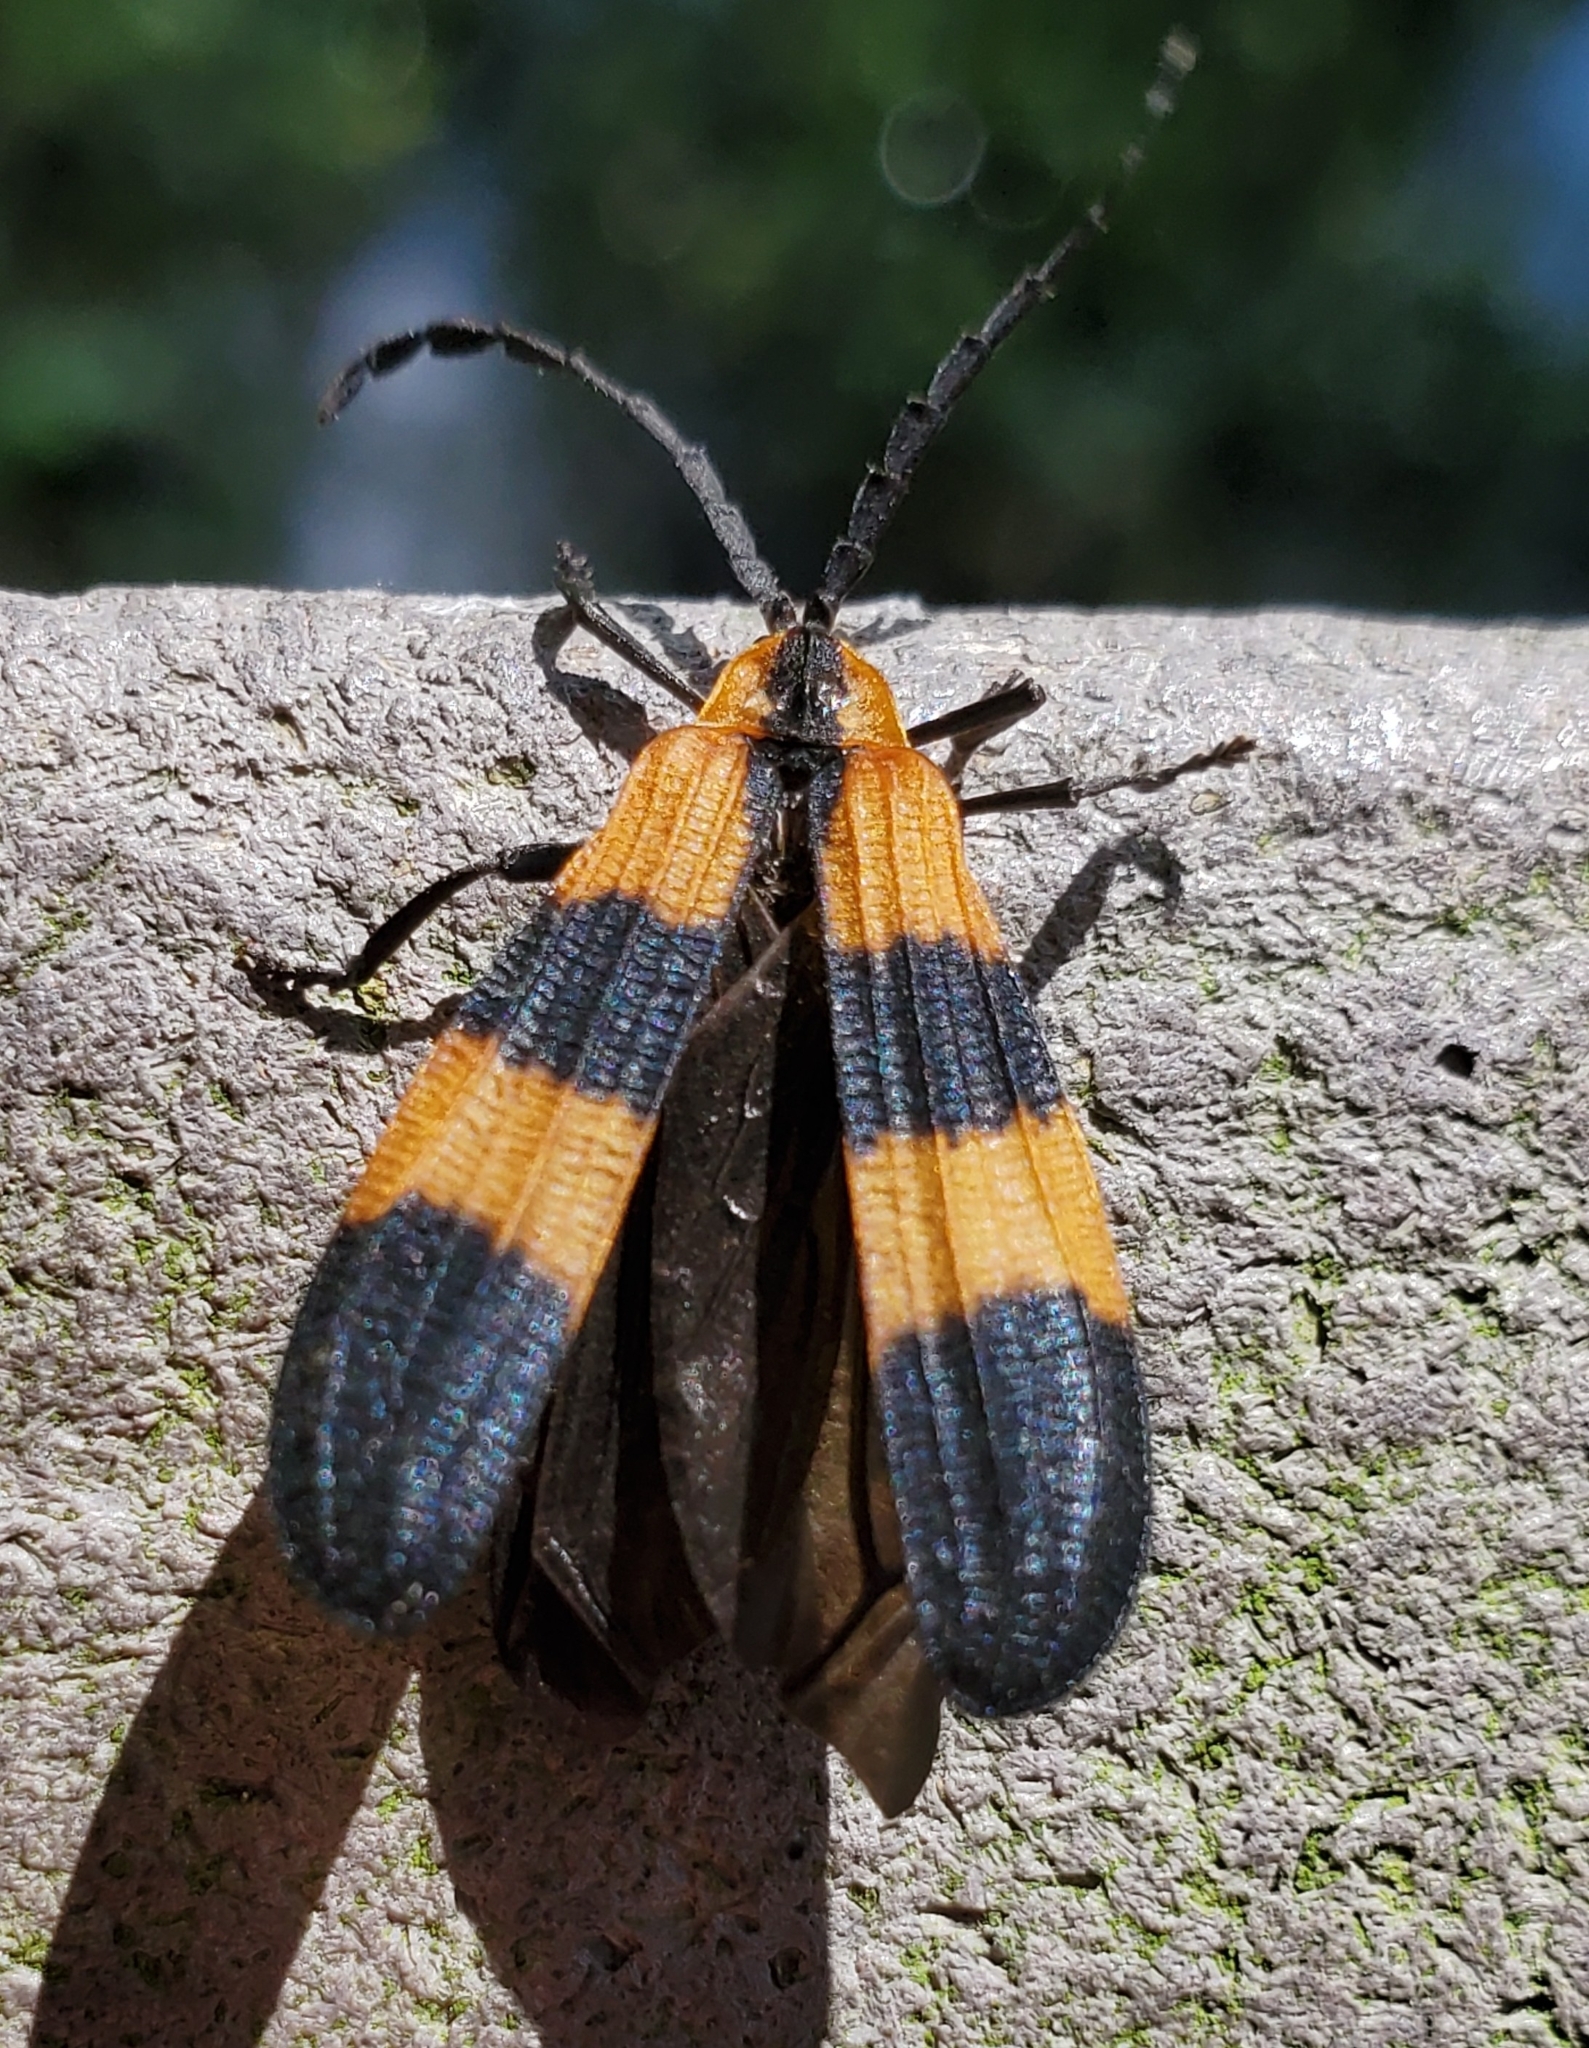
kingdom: Animalia
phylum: Arthropoda
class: Insecta
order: Coleoptera
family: Lycidae
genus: Calopteron
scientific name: Calopteron discrepans
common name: Banded net-winged beetle
